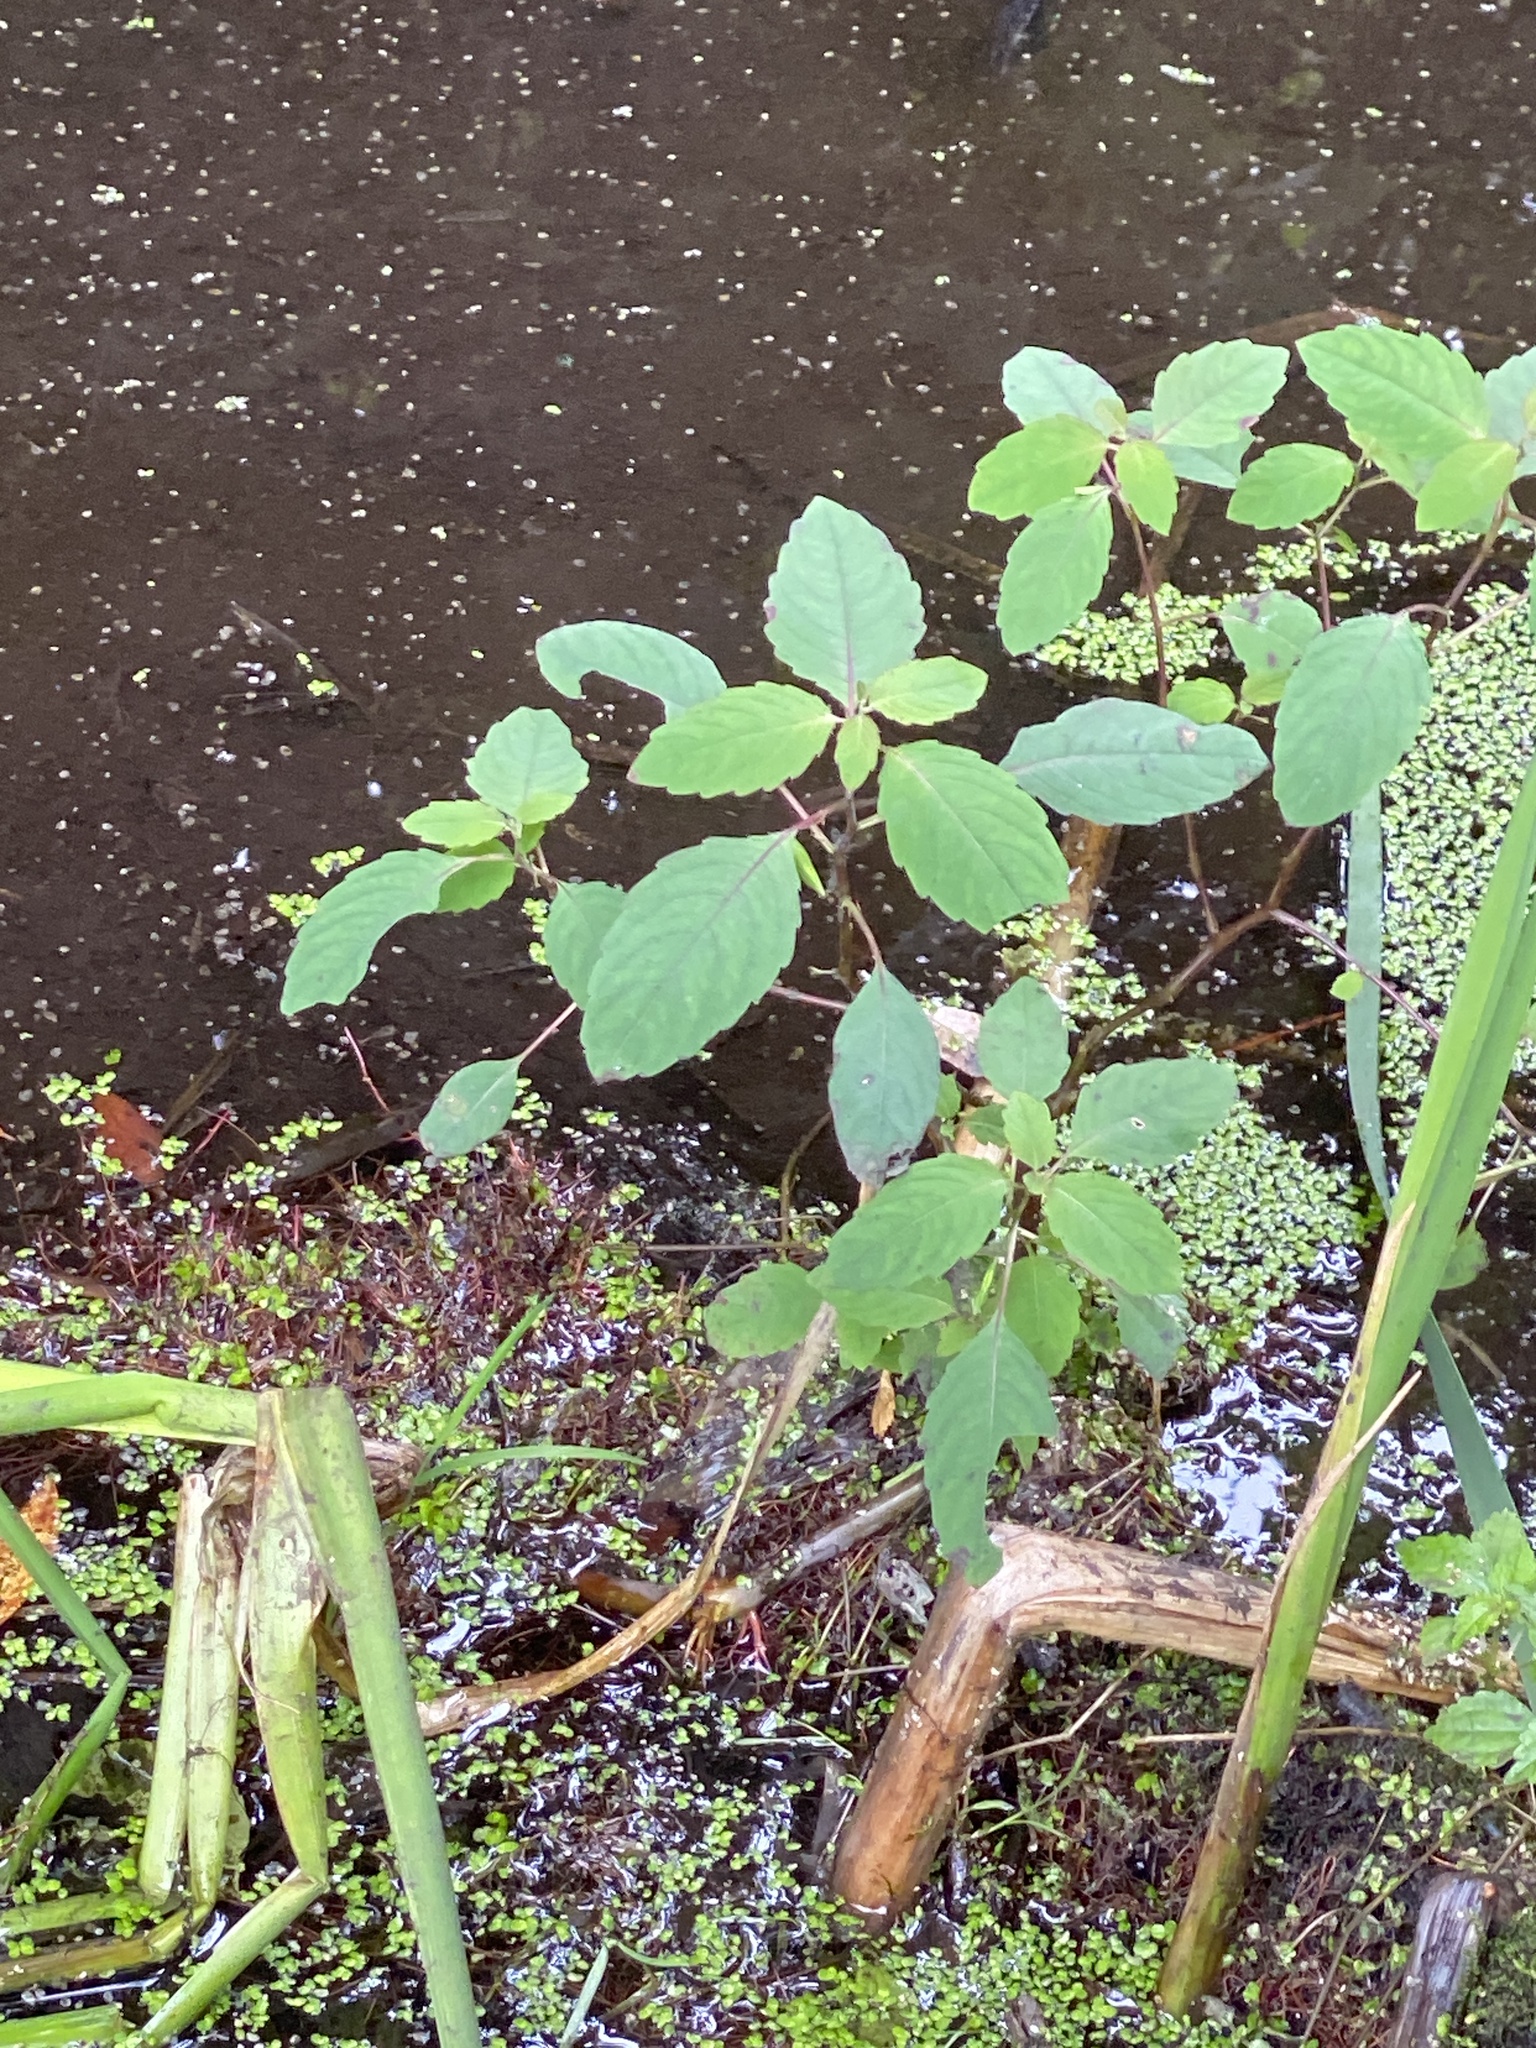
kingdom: Plantae
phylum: Tracheophyta
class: Magnoliopsida
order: Ericales
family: Balsaminaceae
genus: Impatiens
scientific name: Impatiens capensis
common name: Orange balsam
